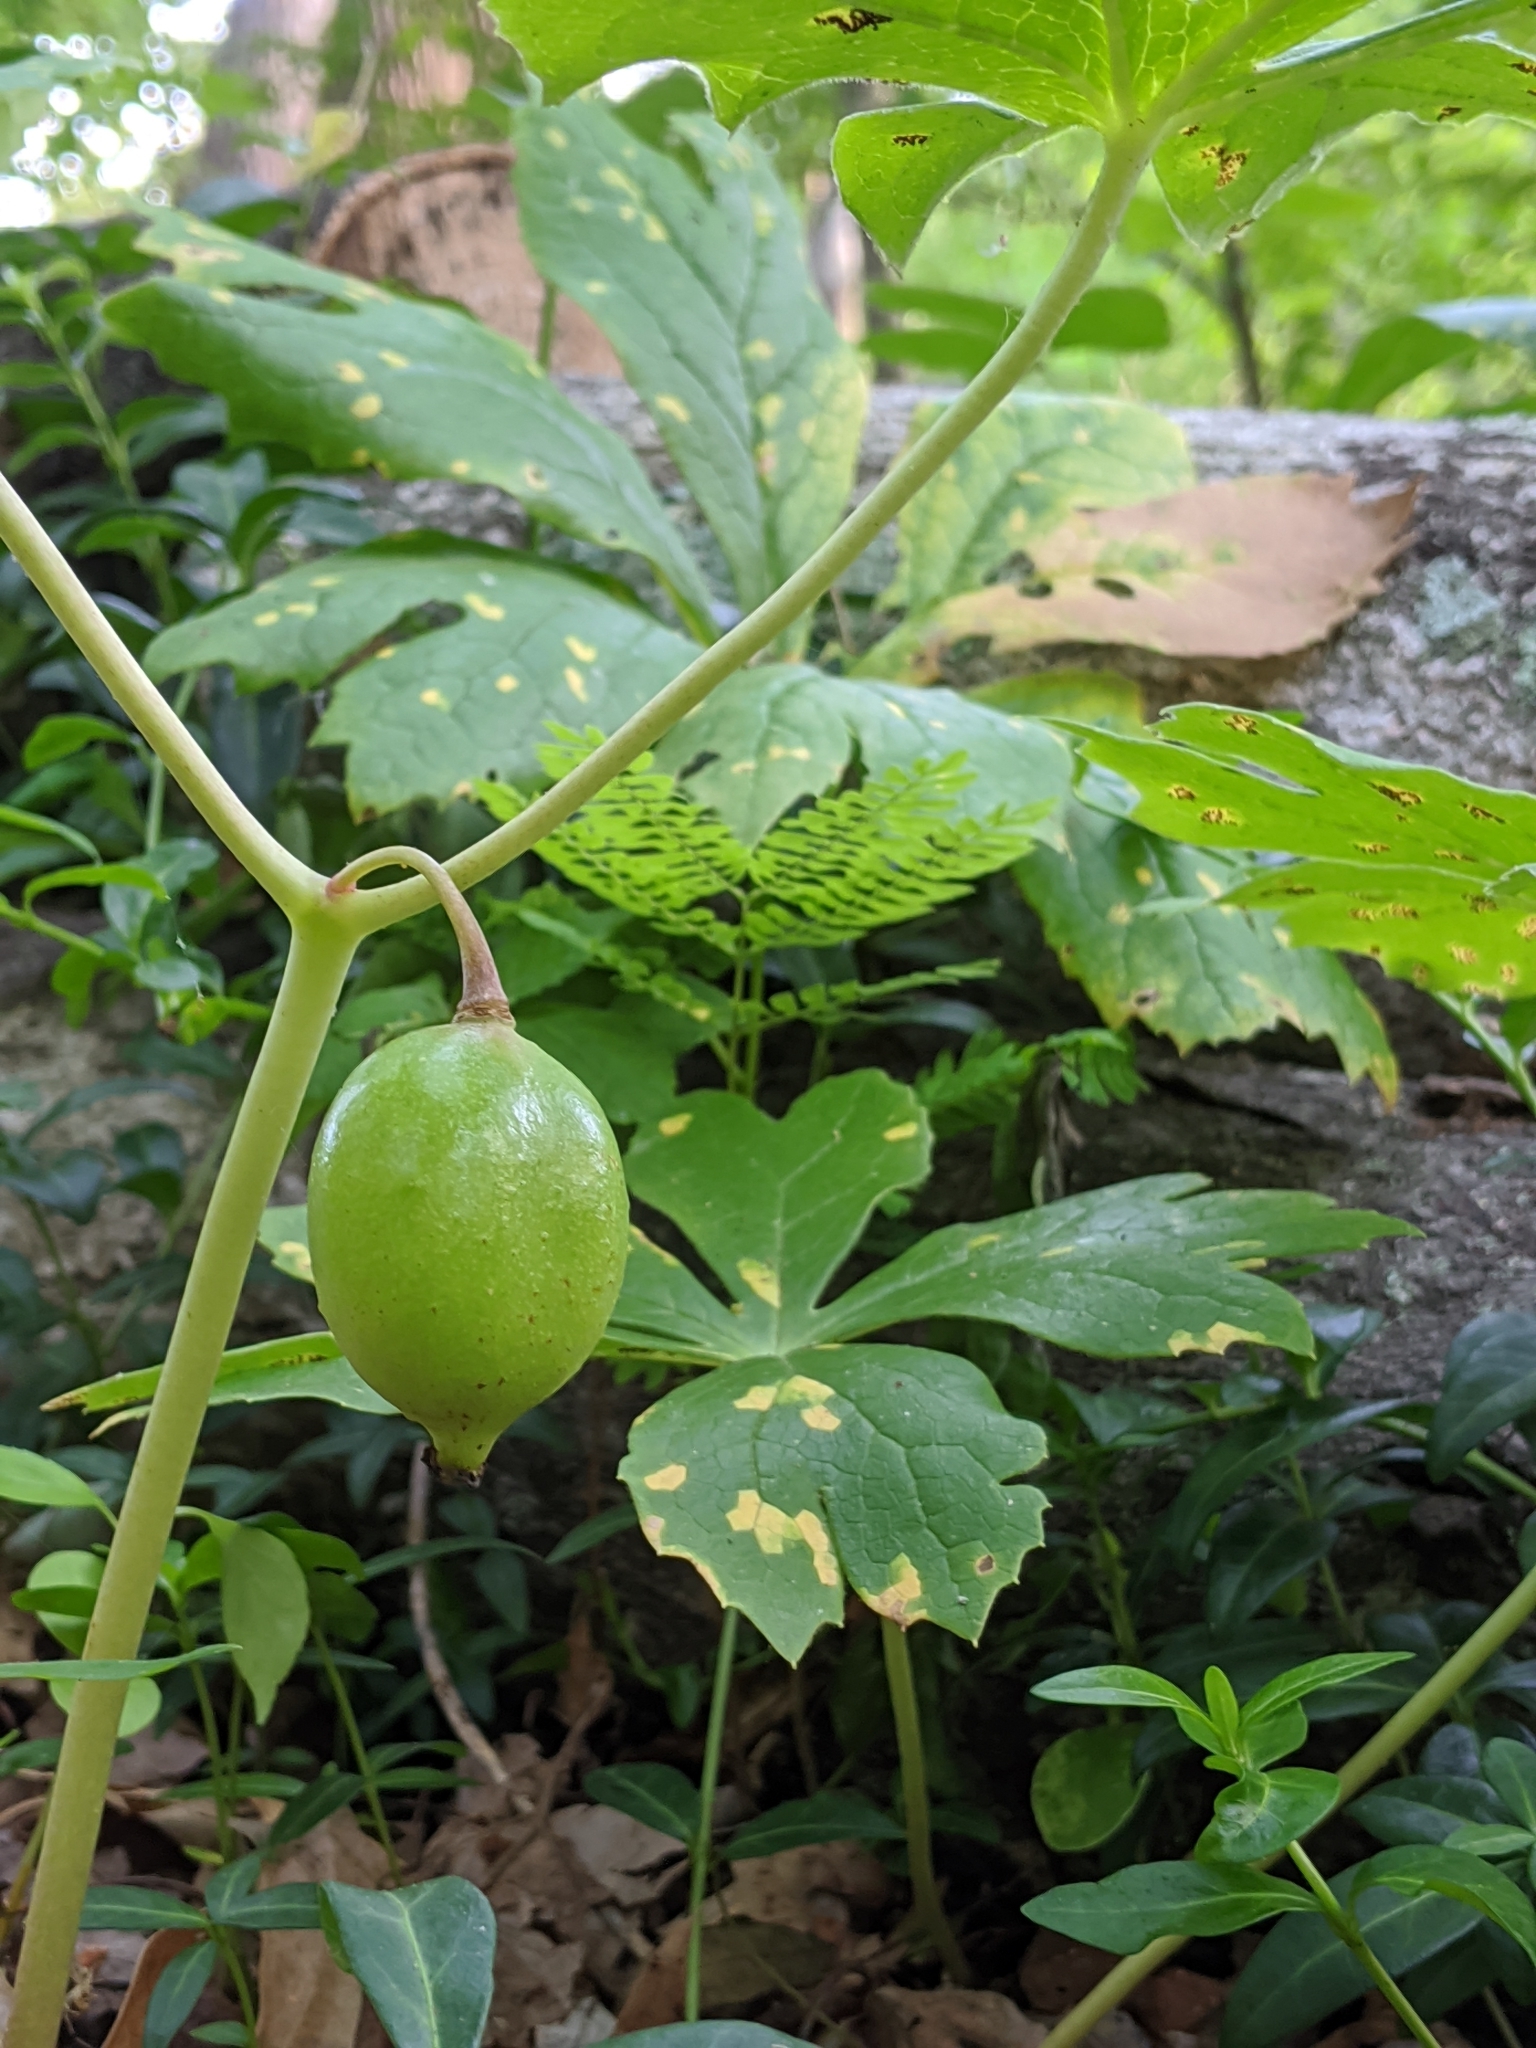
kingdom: Plantae
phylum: Tracheophyta
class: Magnoliopsida
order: Ranunculales
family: Berberidaceae
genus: Podophyllum
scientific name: Podophyllum peltatum
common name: Wild mandrake
